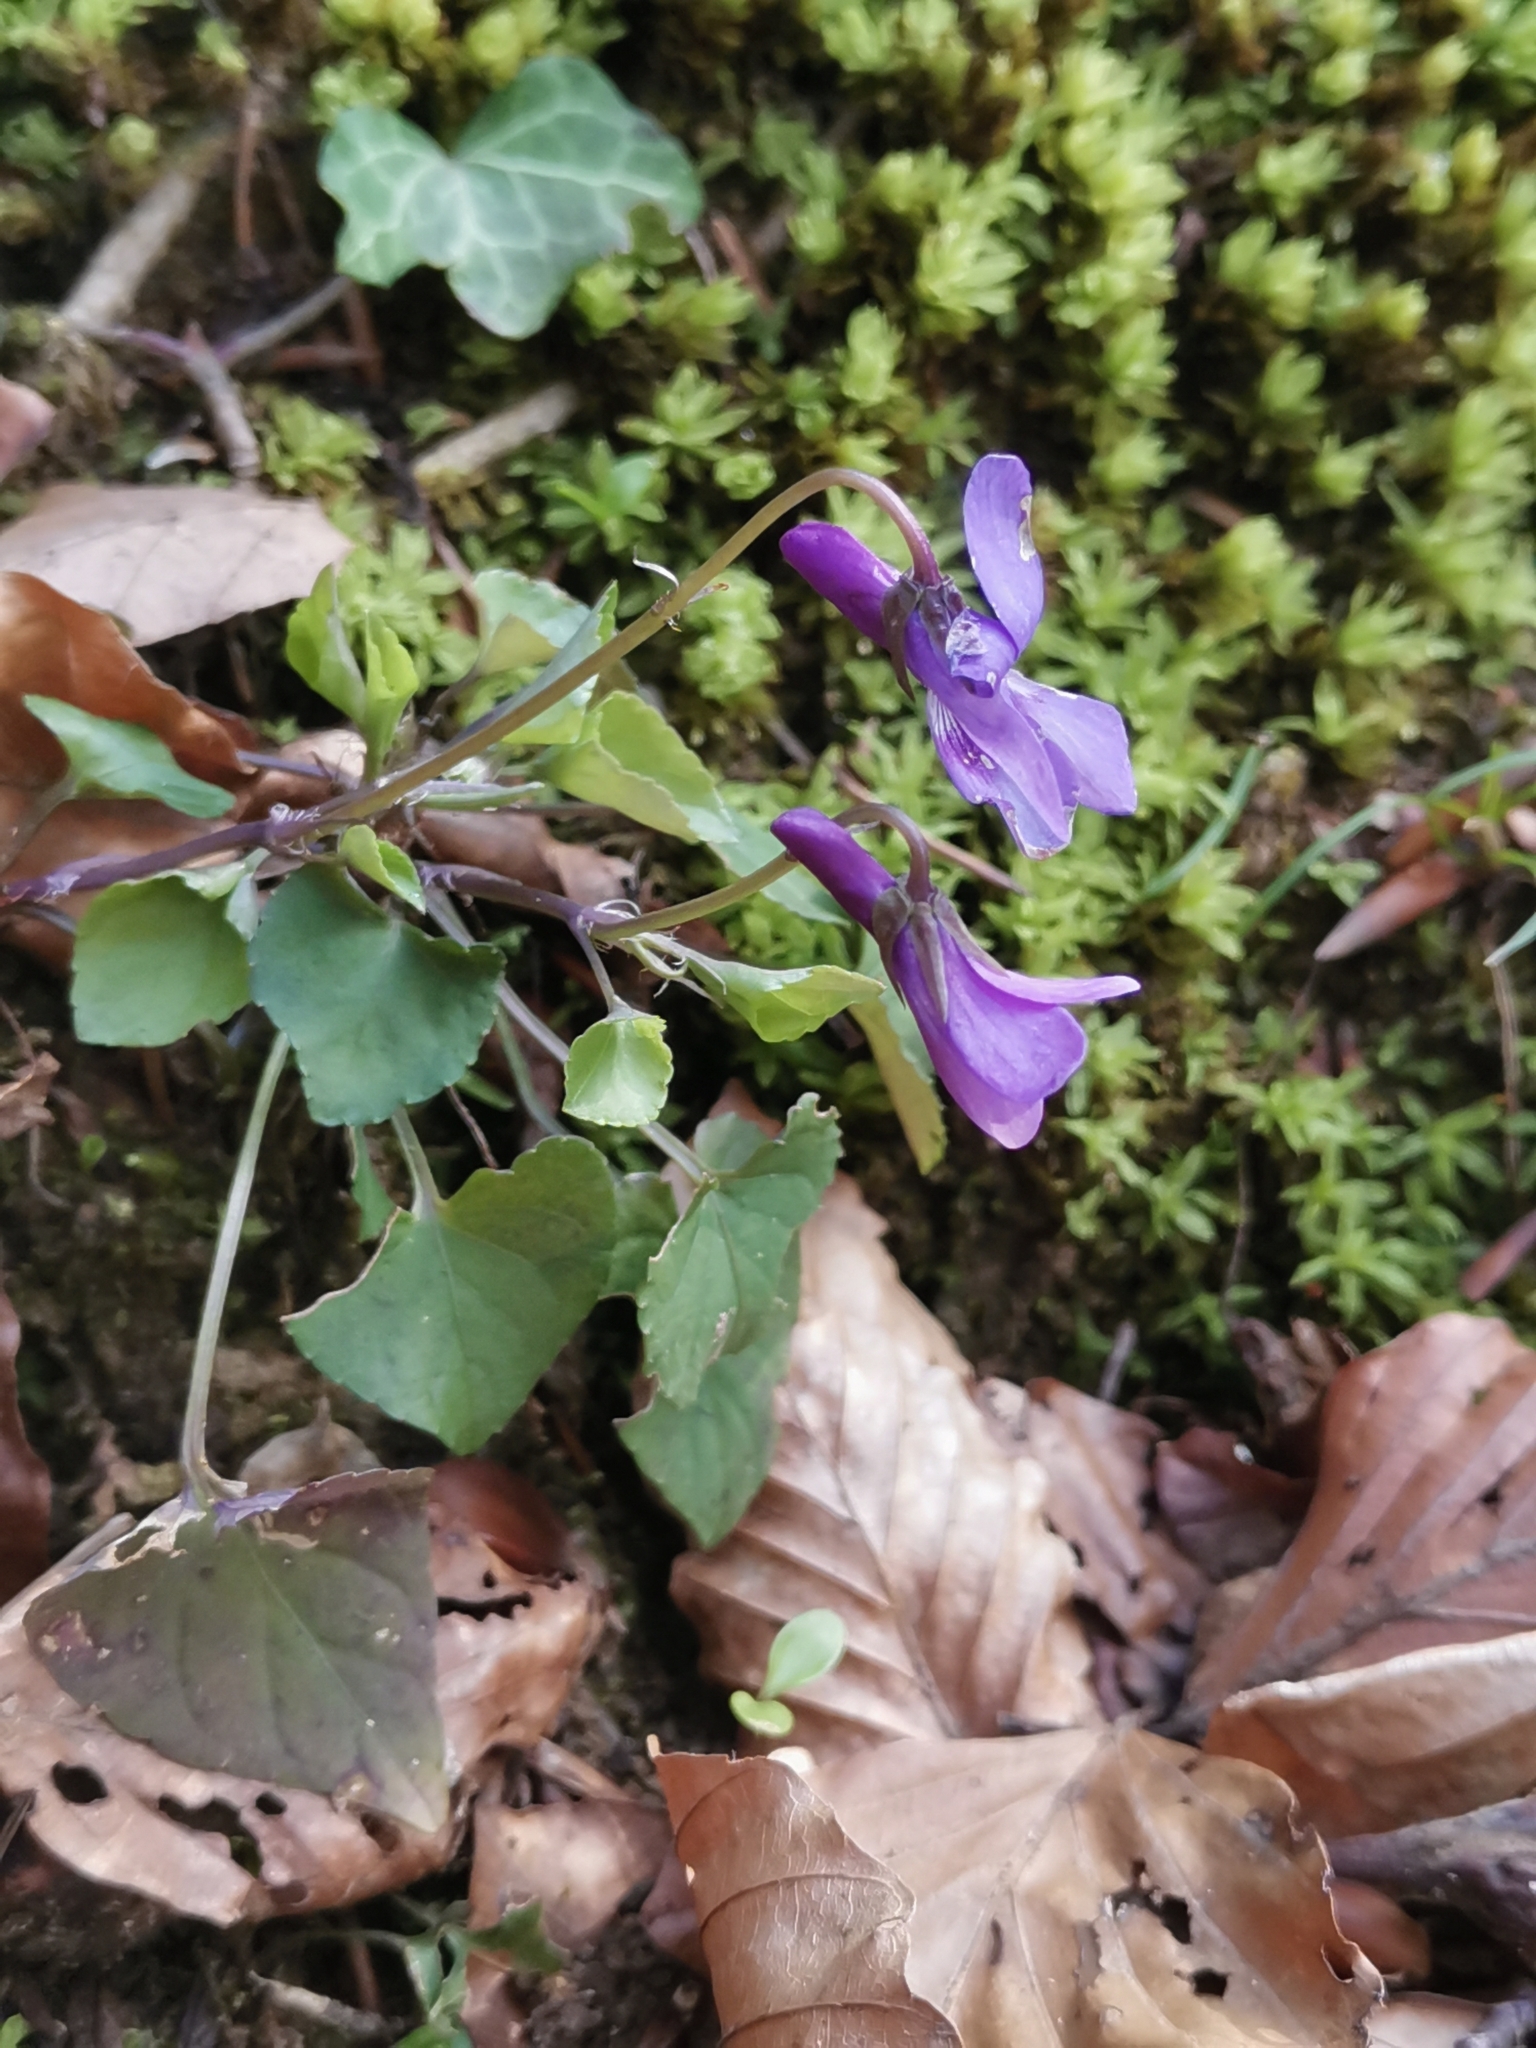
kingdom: Plantae
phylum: Tracheophyta
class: Magnoliopsida
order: Malpighiales
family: Violaceae
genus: Viola
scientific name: Viola reichenbachiana
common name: Early dog-violet
